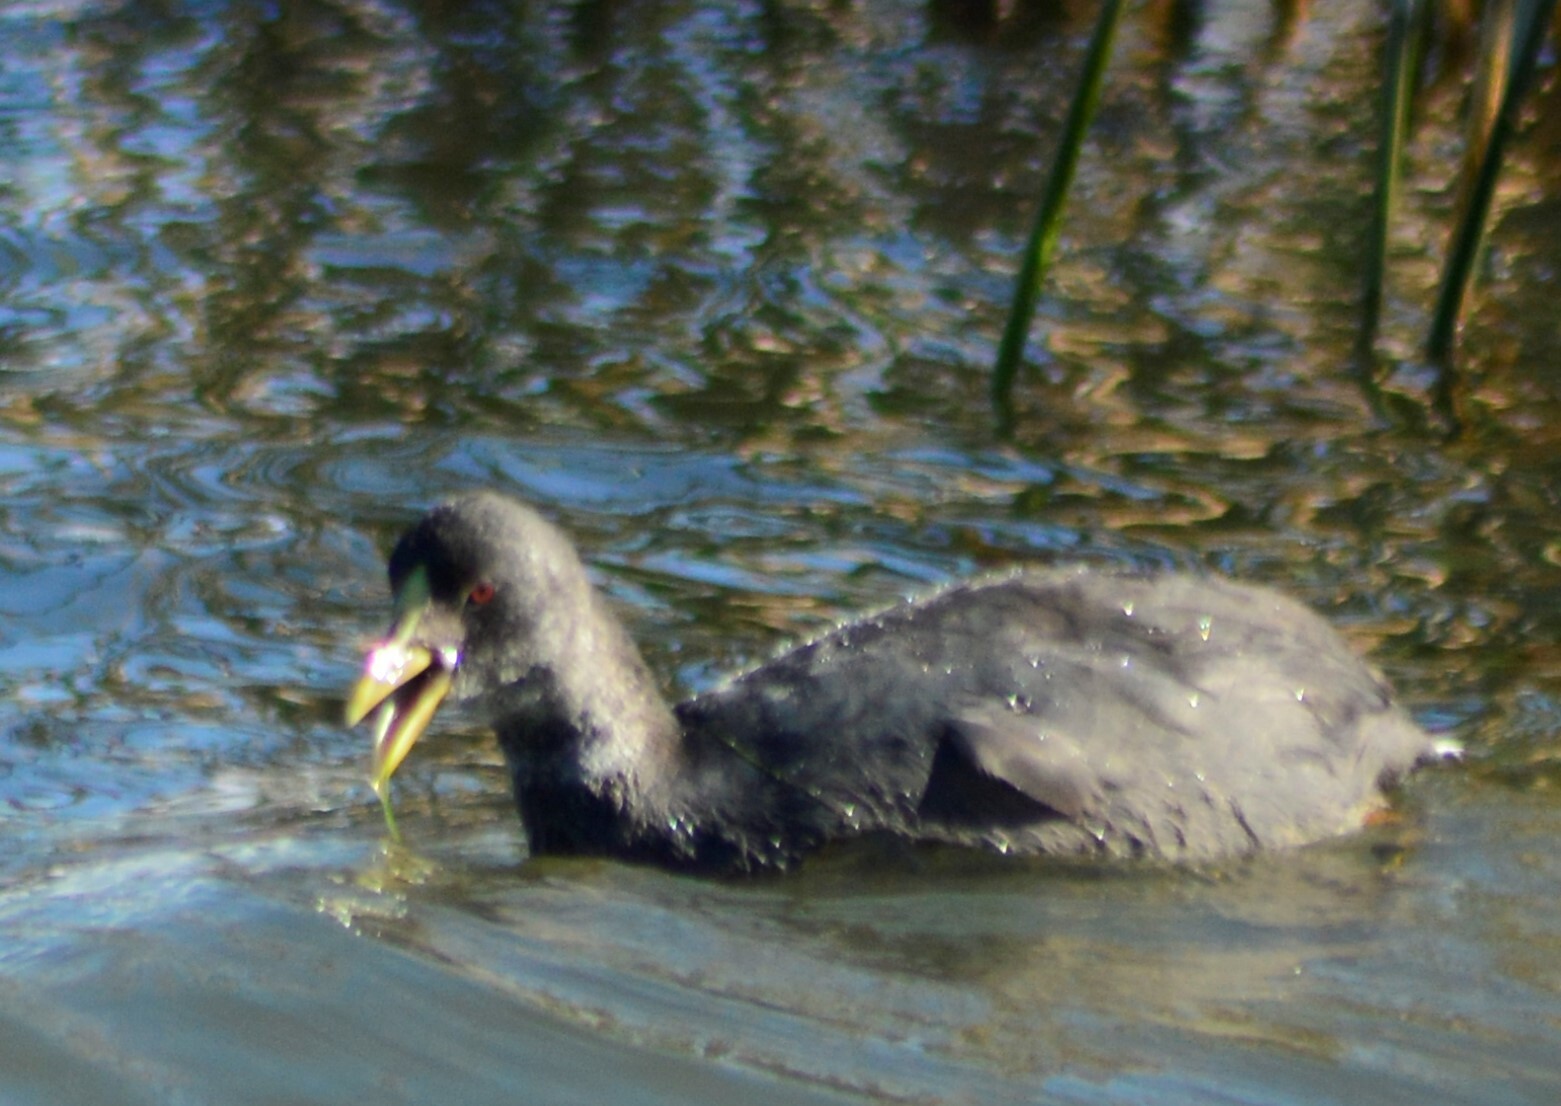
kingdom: Animalia
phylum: Chordata
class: Aves
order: Gruiformes
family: Rallidae
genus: Fulica
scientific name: Fulica armillata
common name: Red-gartered coot
